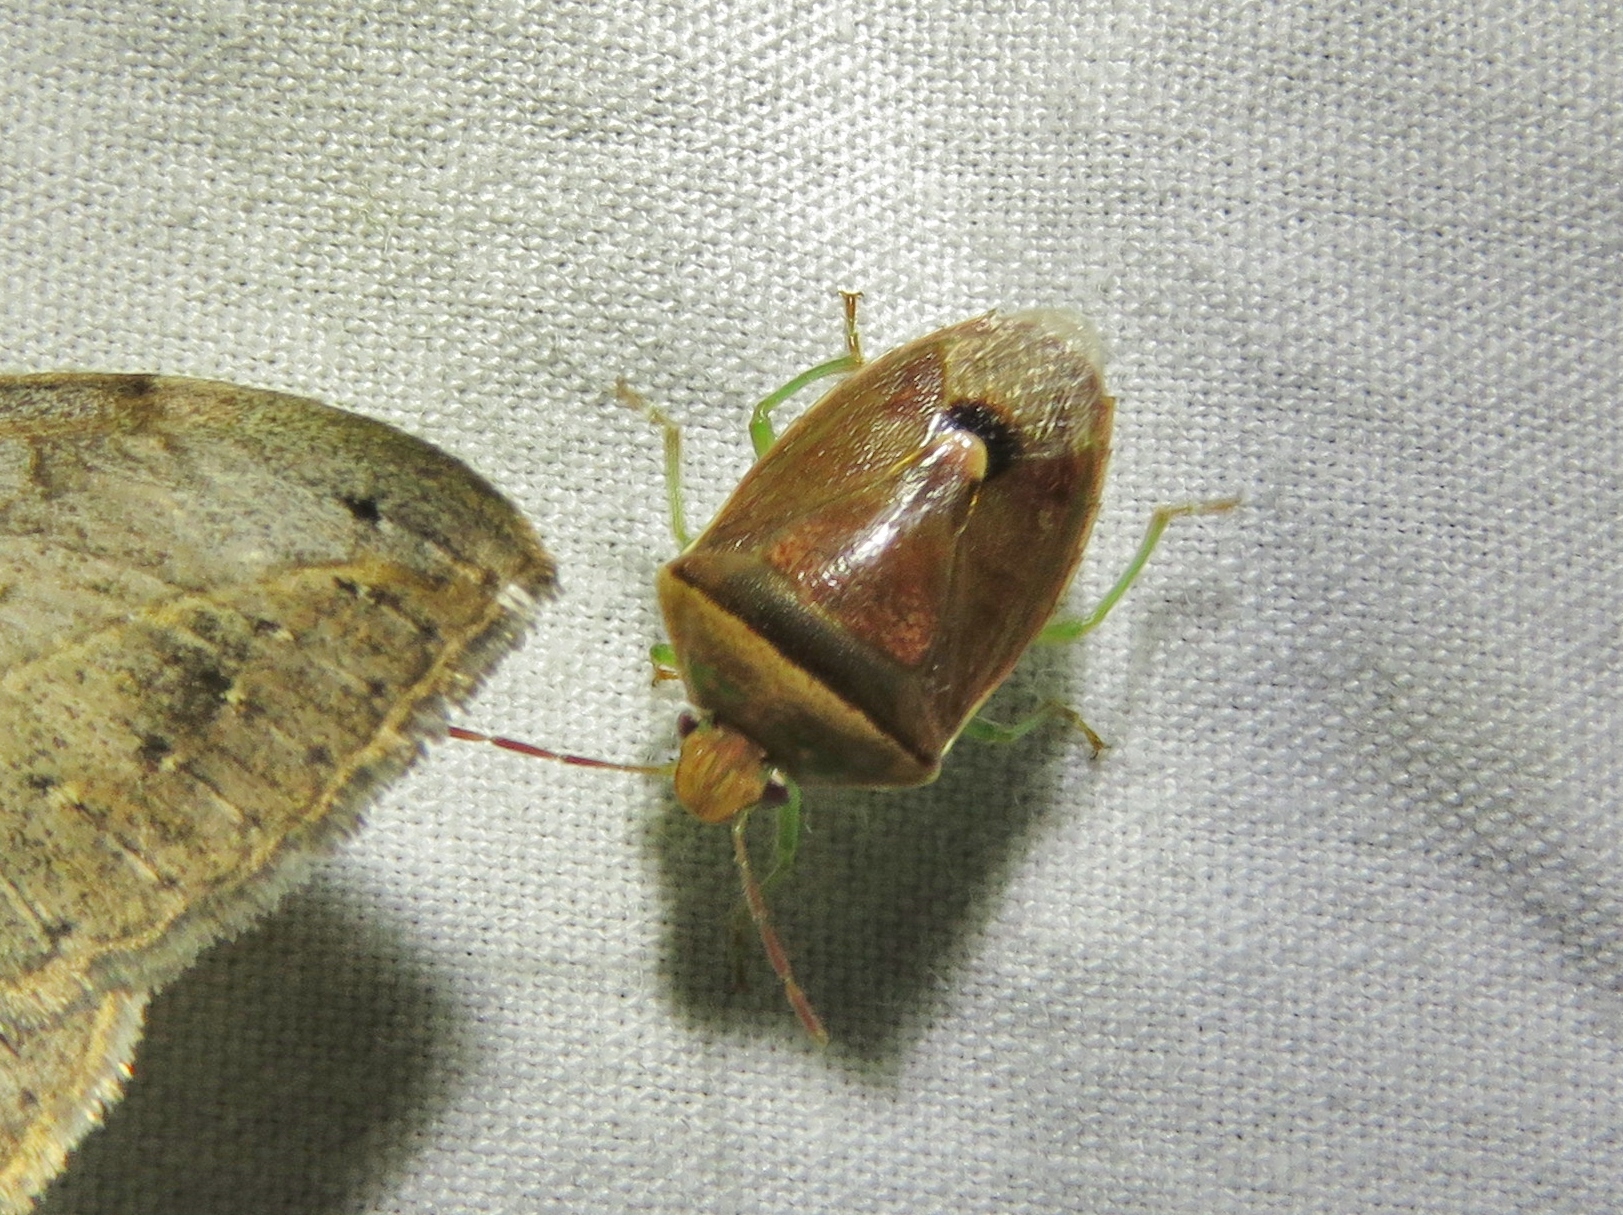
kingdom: Animalia
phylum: Arthropoda
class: Insecta
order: Hemiptera
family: Pentatomidae
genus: Banasa
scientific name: Banasa dimidiata
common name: Green burgundy stink bug
